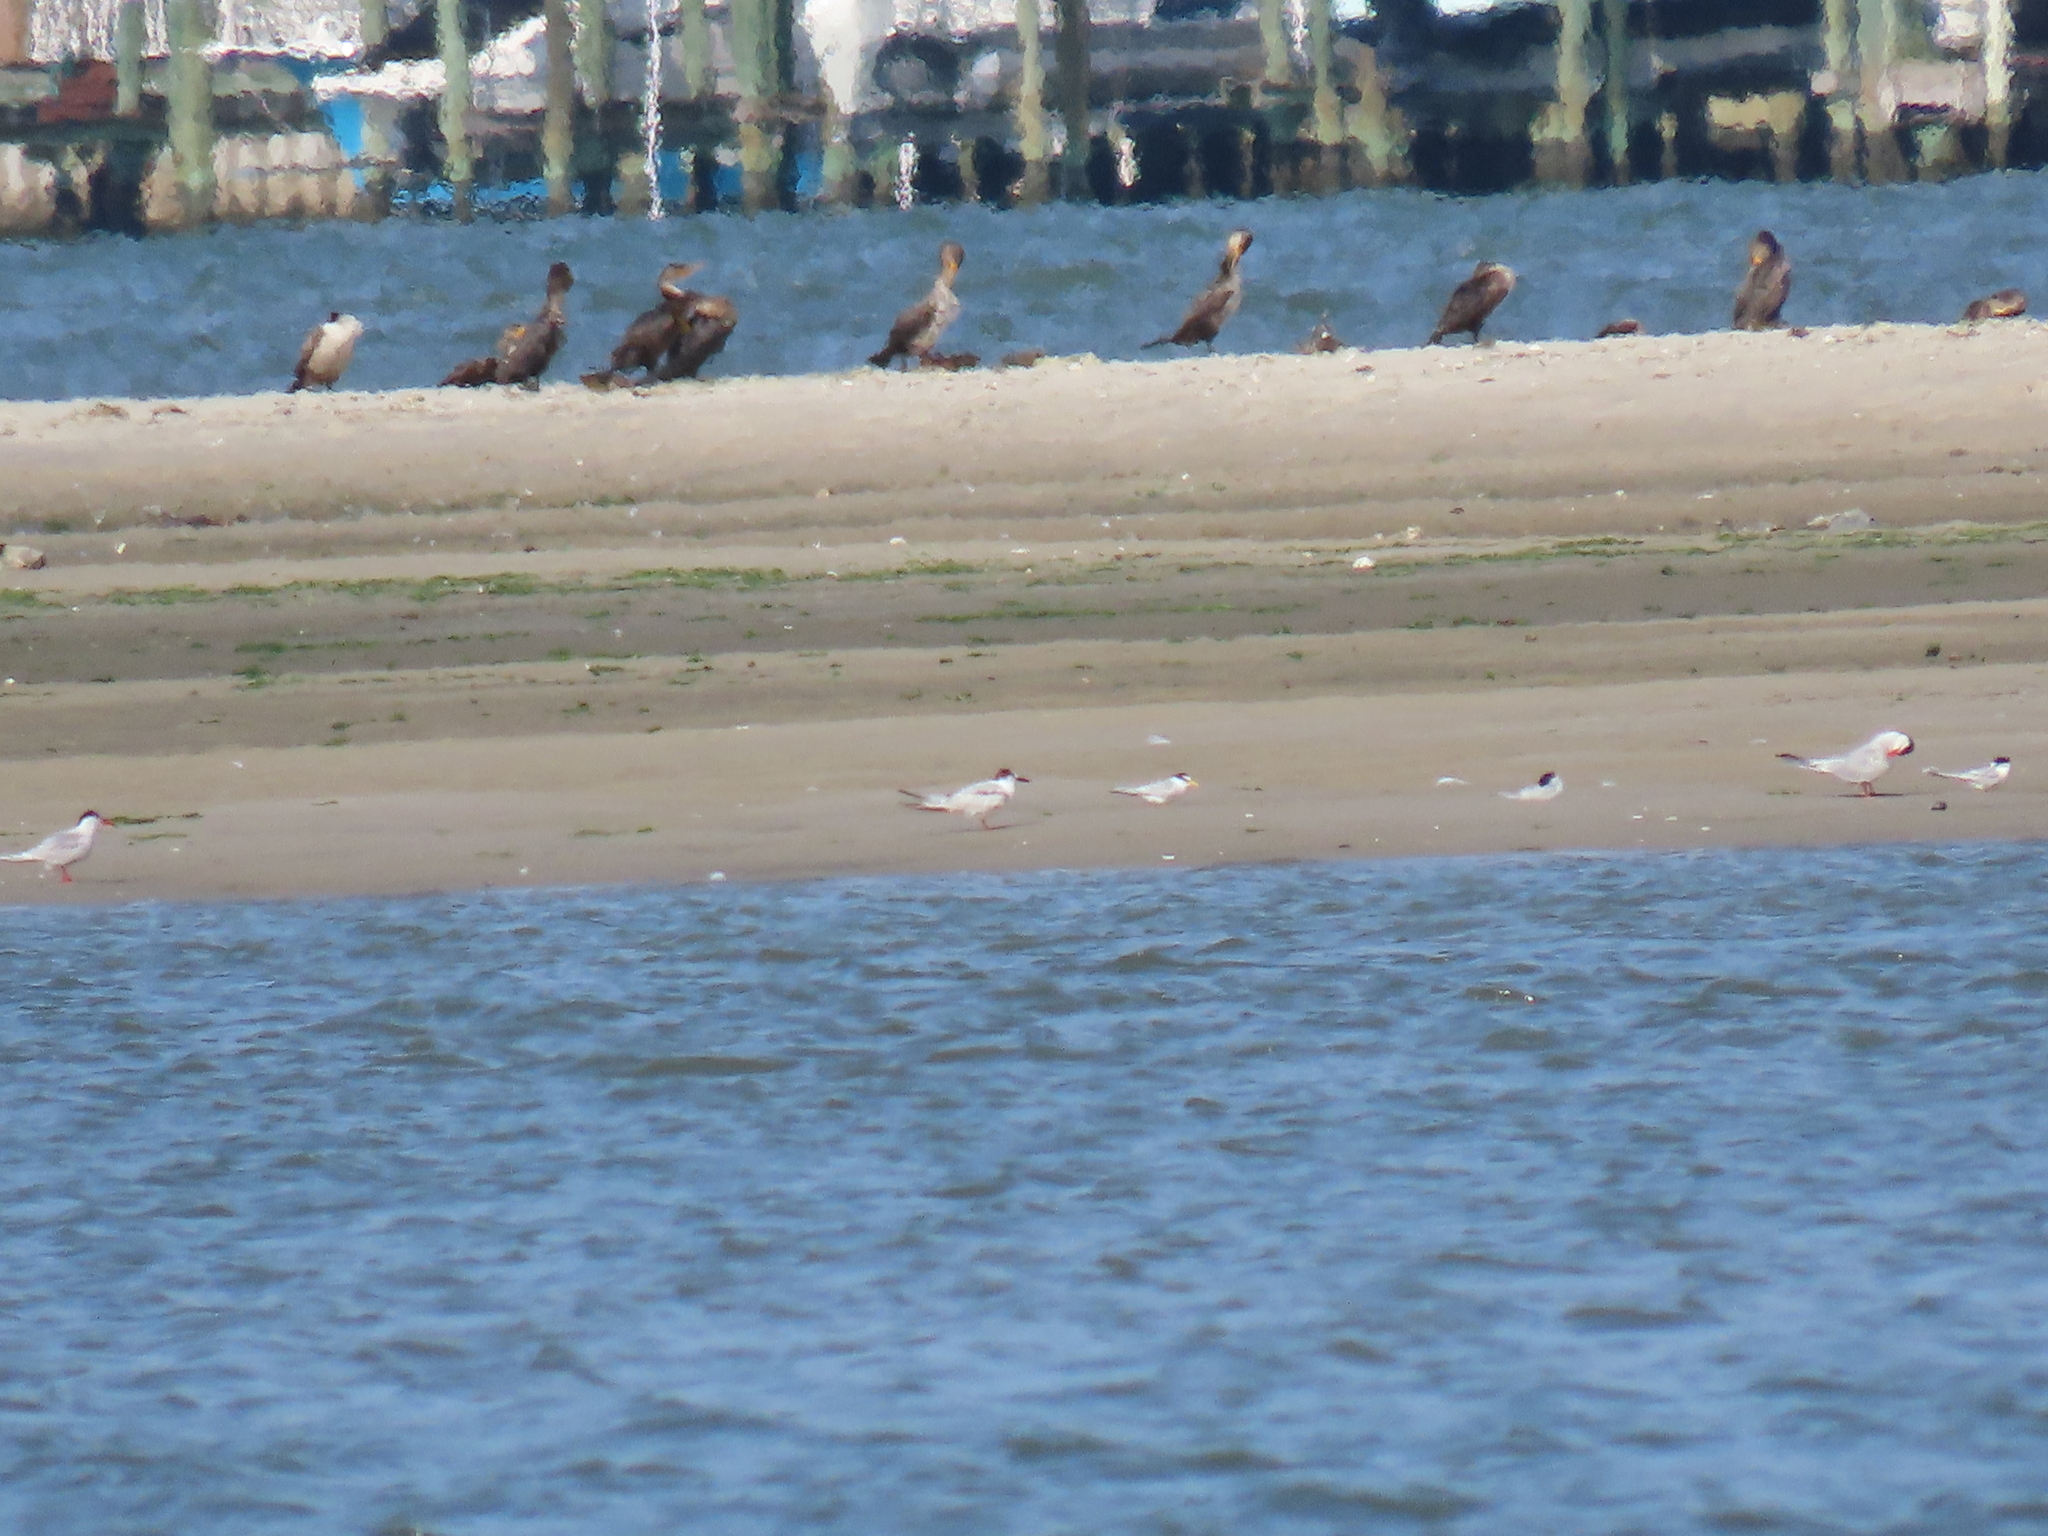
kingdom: Animalia
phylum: Chordata
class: Aves
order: Charadriiformes
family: Laridae
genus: Sterna
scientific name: Sterna hirundo
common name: Common tern
